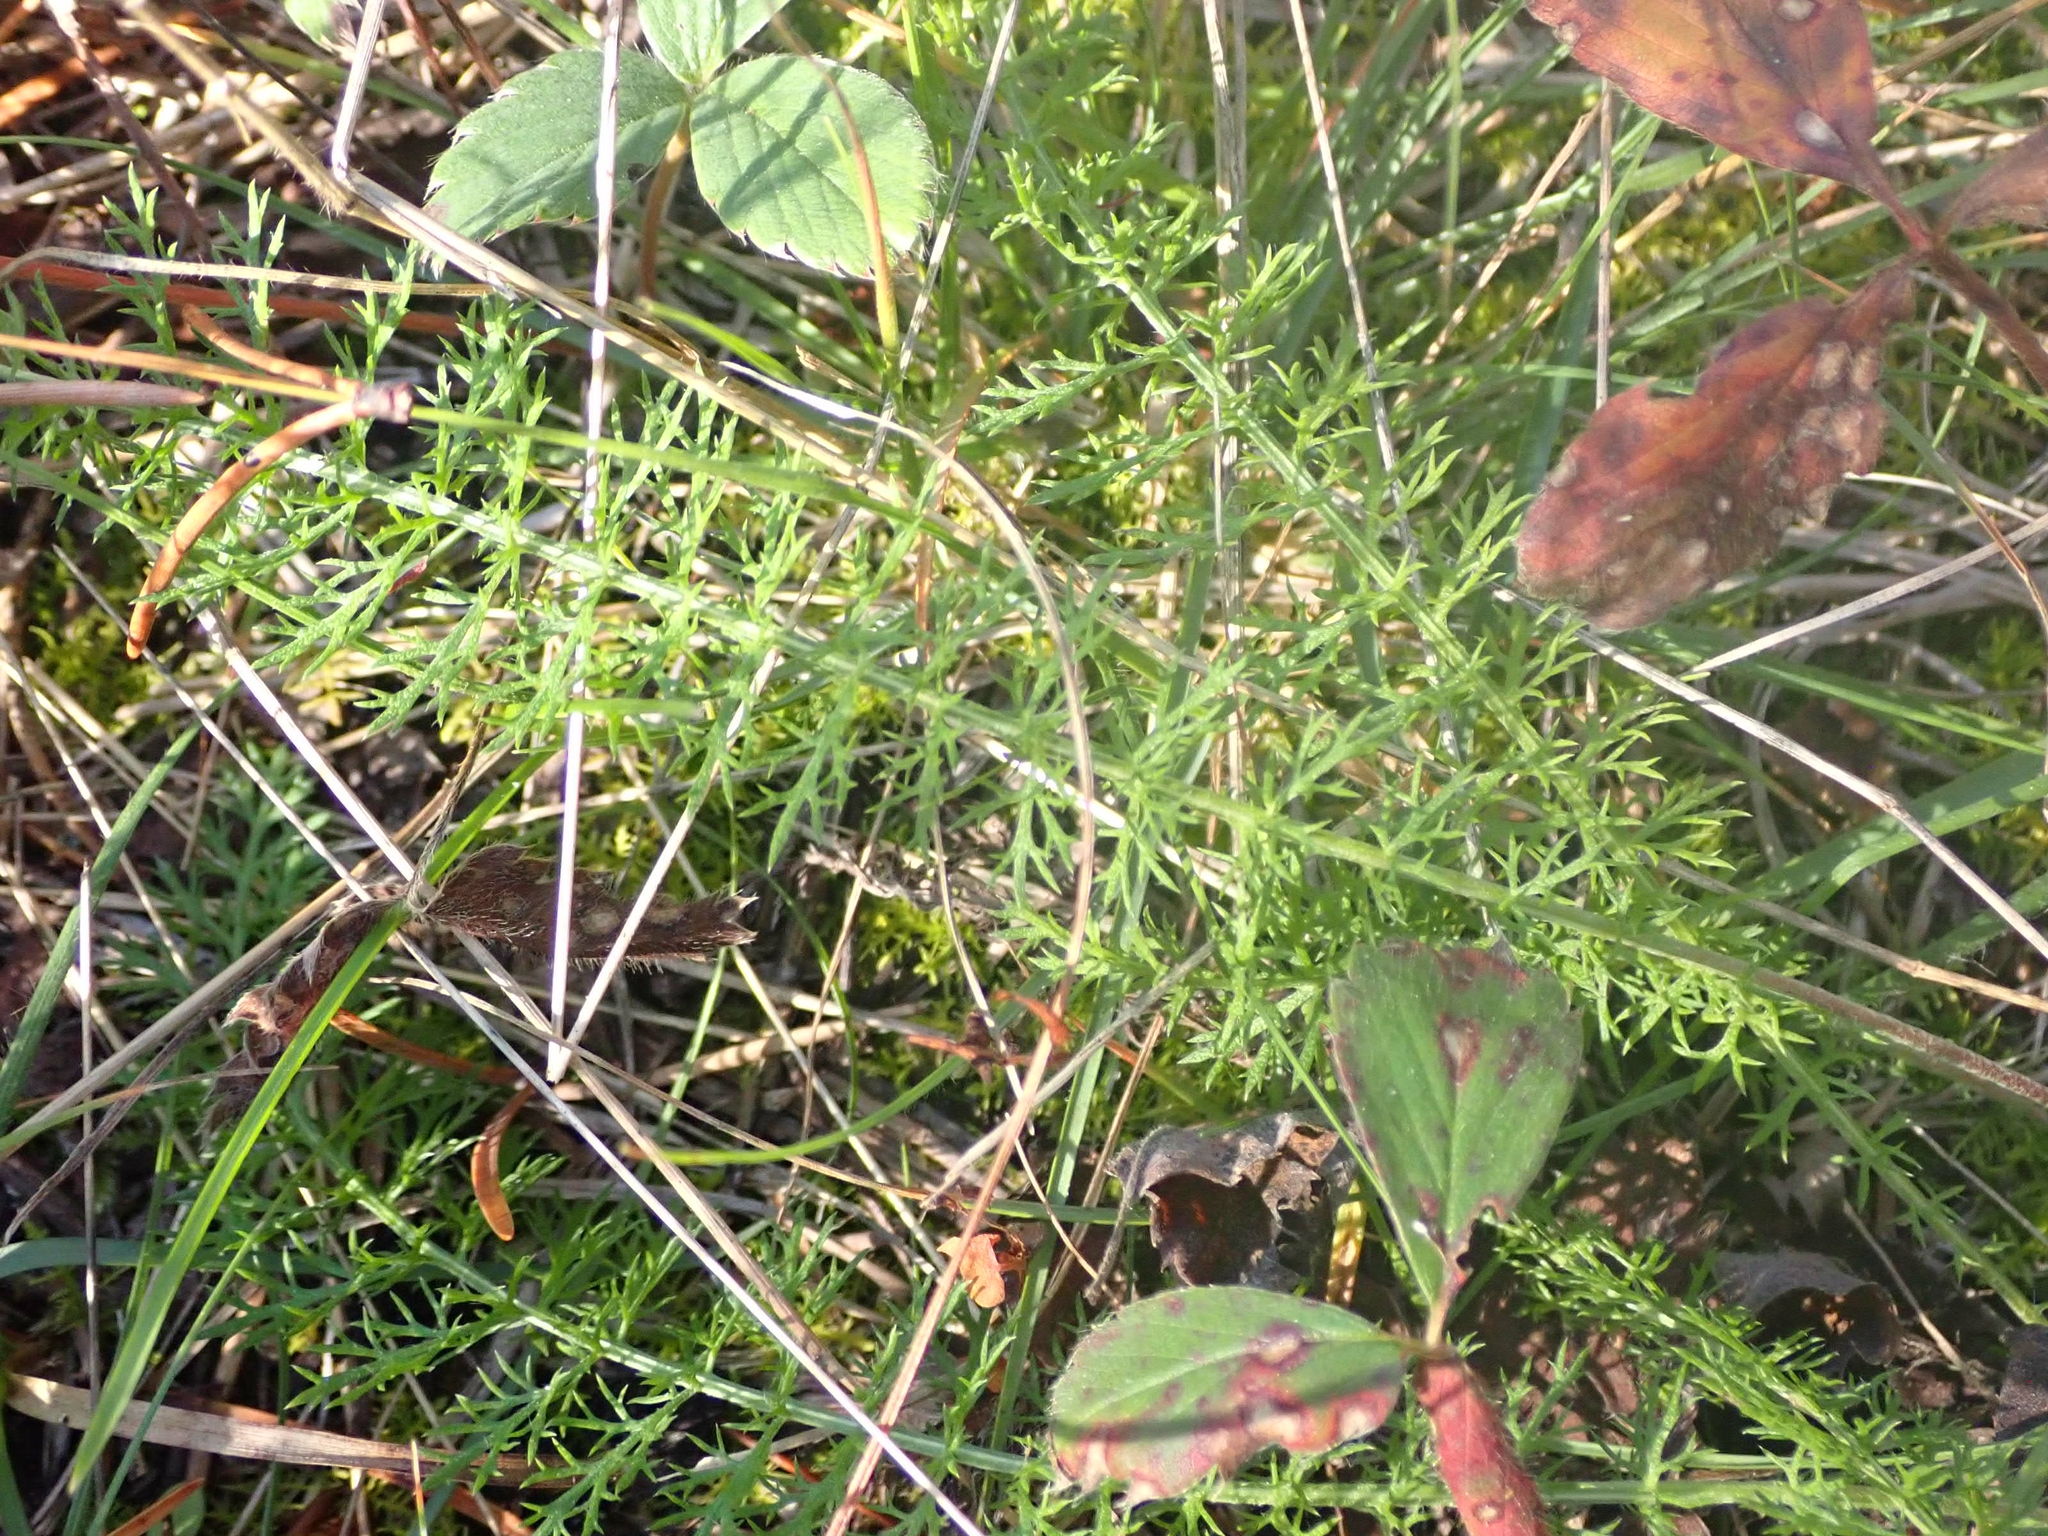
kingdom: Plantae
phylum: Tracheophyta
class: Magnoliopsida
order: Asterales
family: Asteraceae
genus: Achillea
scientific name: Achillea millefolium
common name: Yarrow
